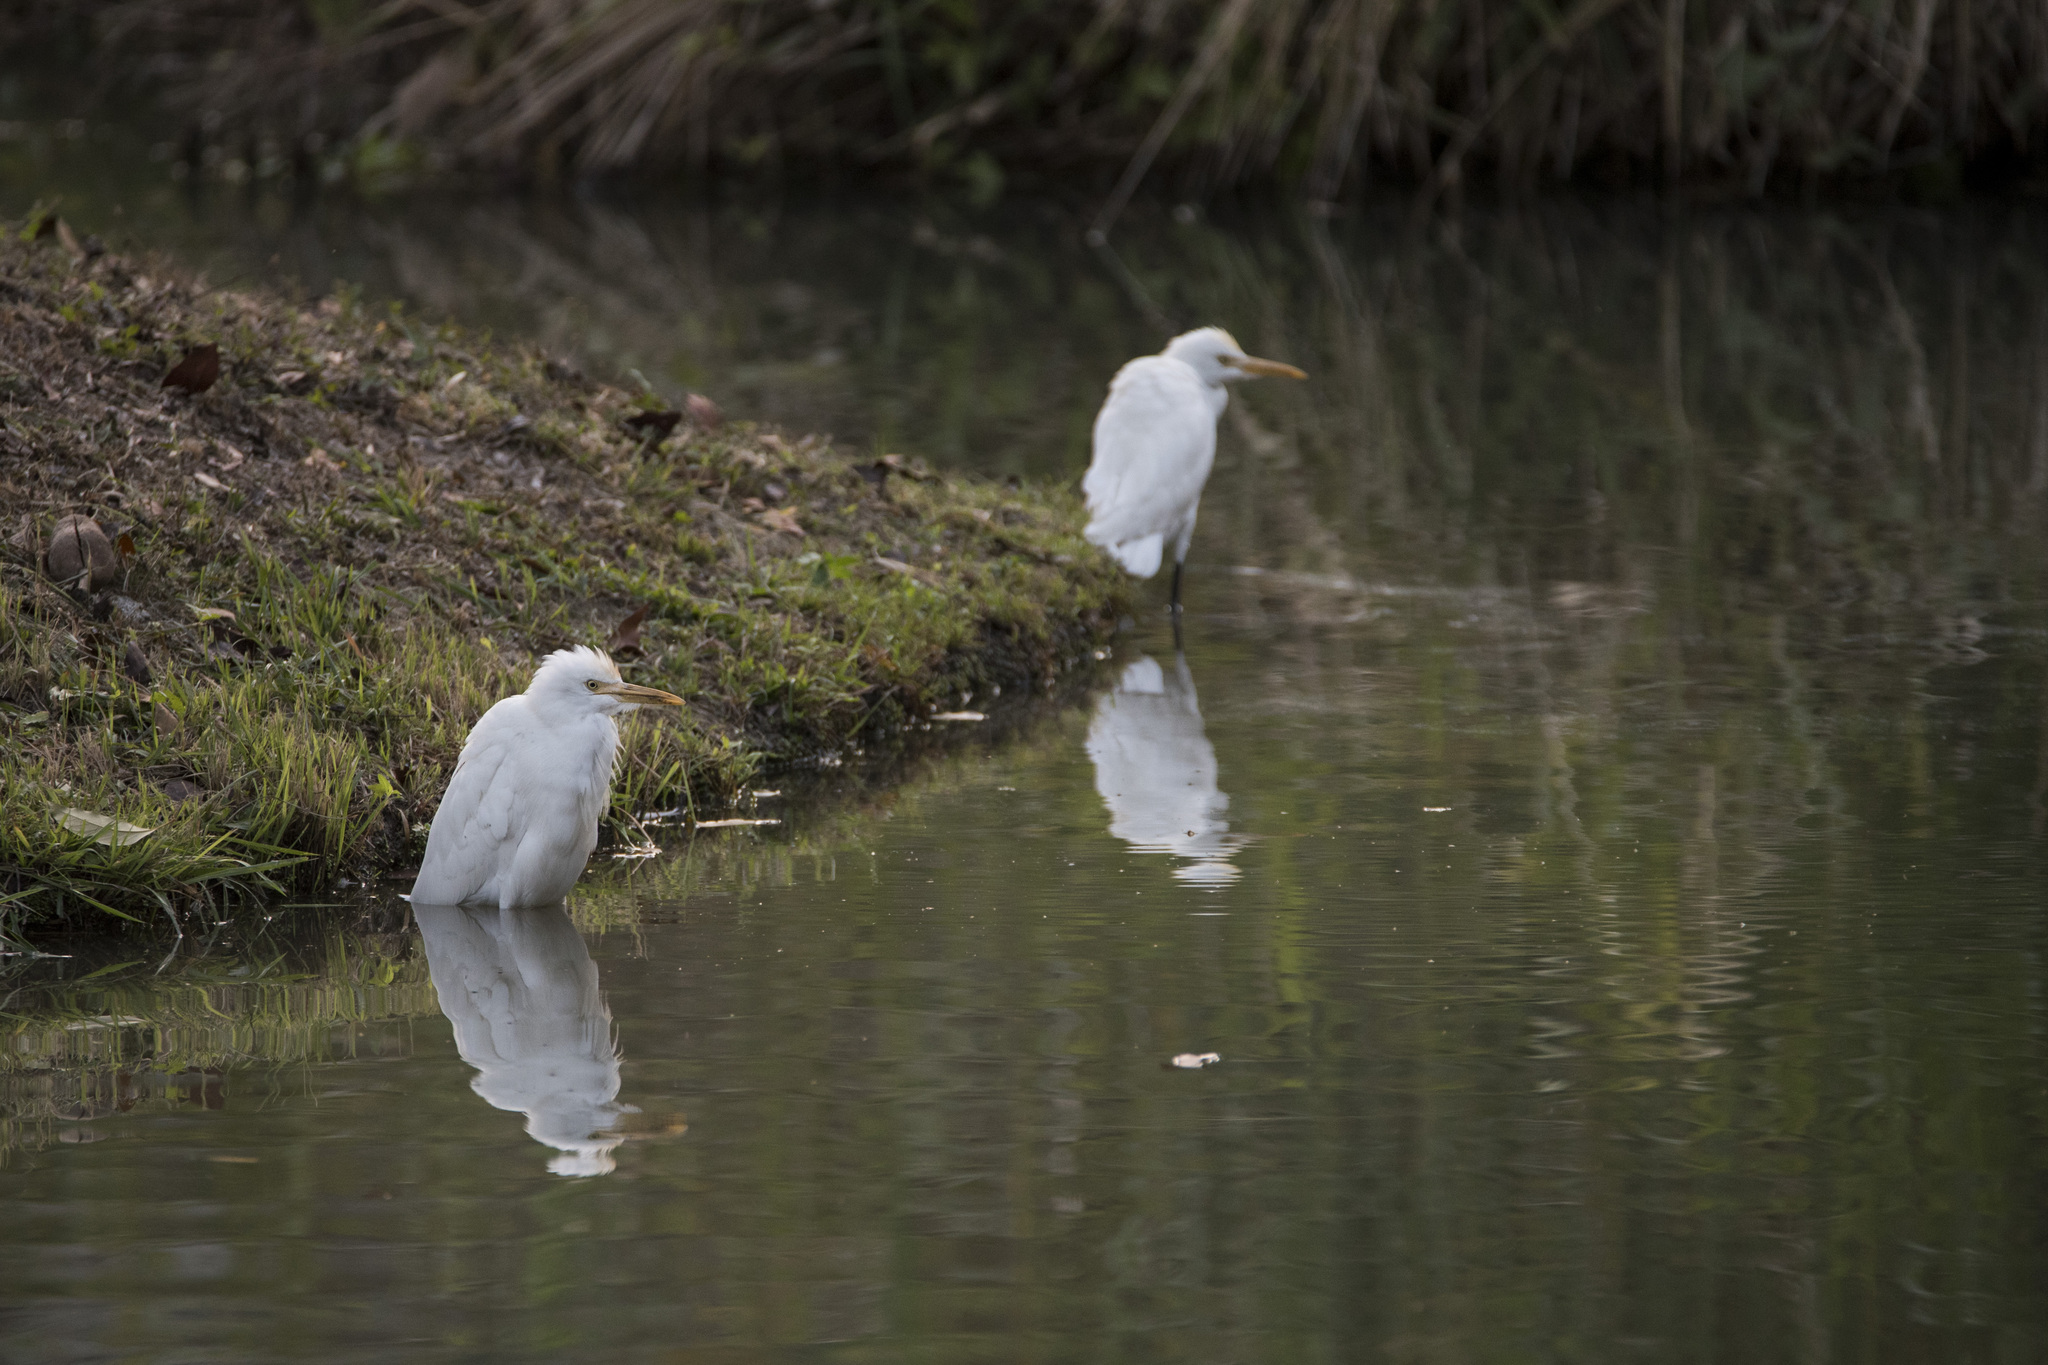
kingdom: Animalia
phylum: Chordata
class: Aves
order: Pelecaniformes
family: Ardeidae
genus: Bubulcus
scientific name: Bubulcus coromandus
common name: Eastern cattle egret
